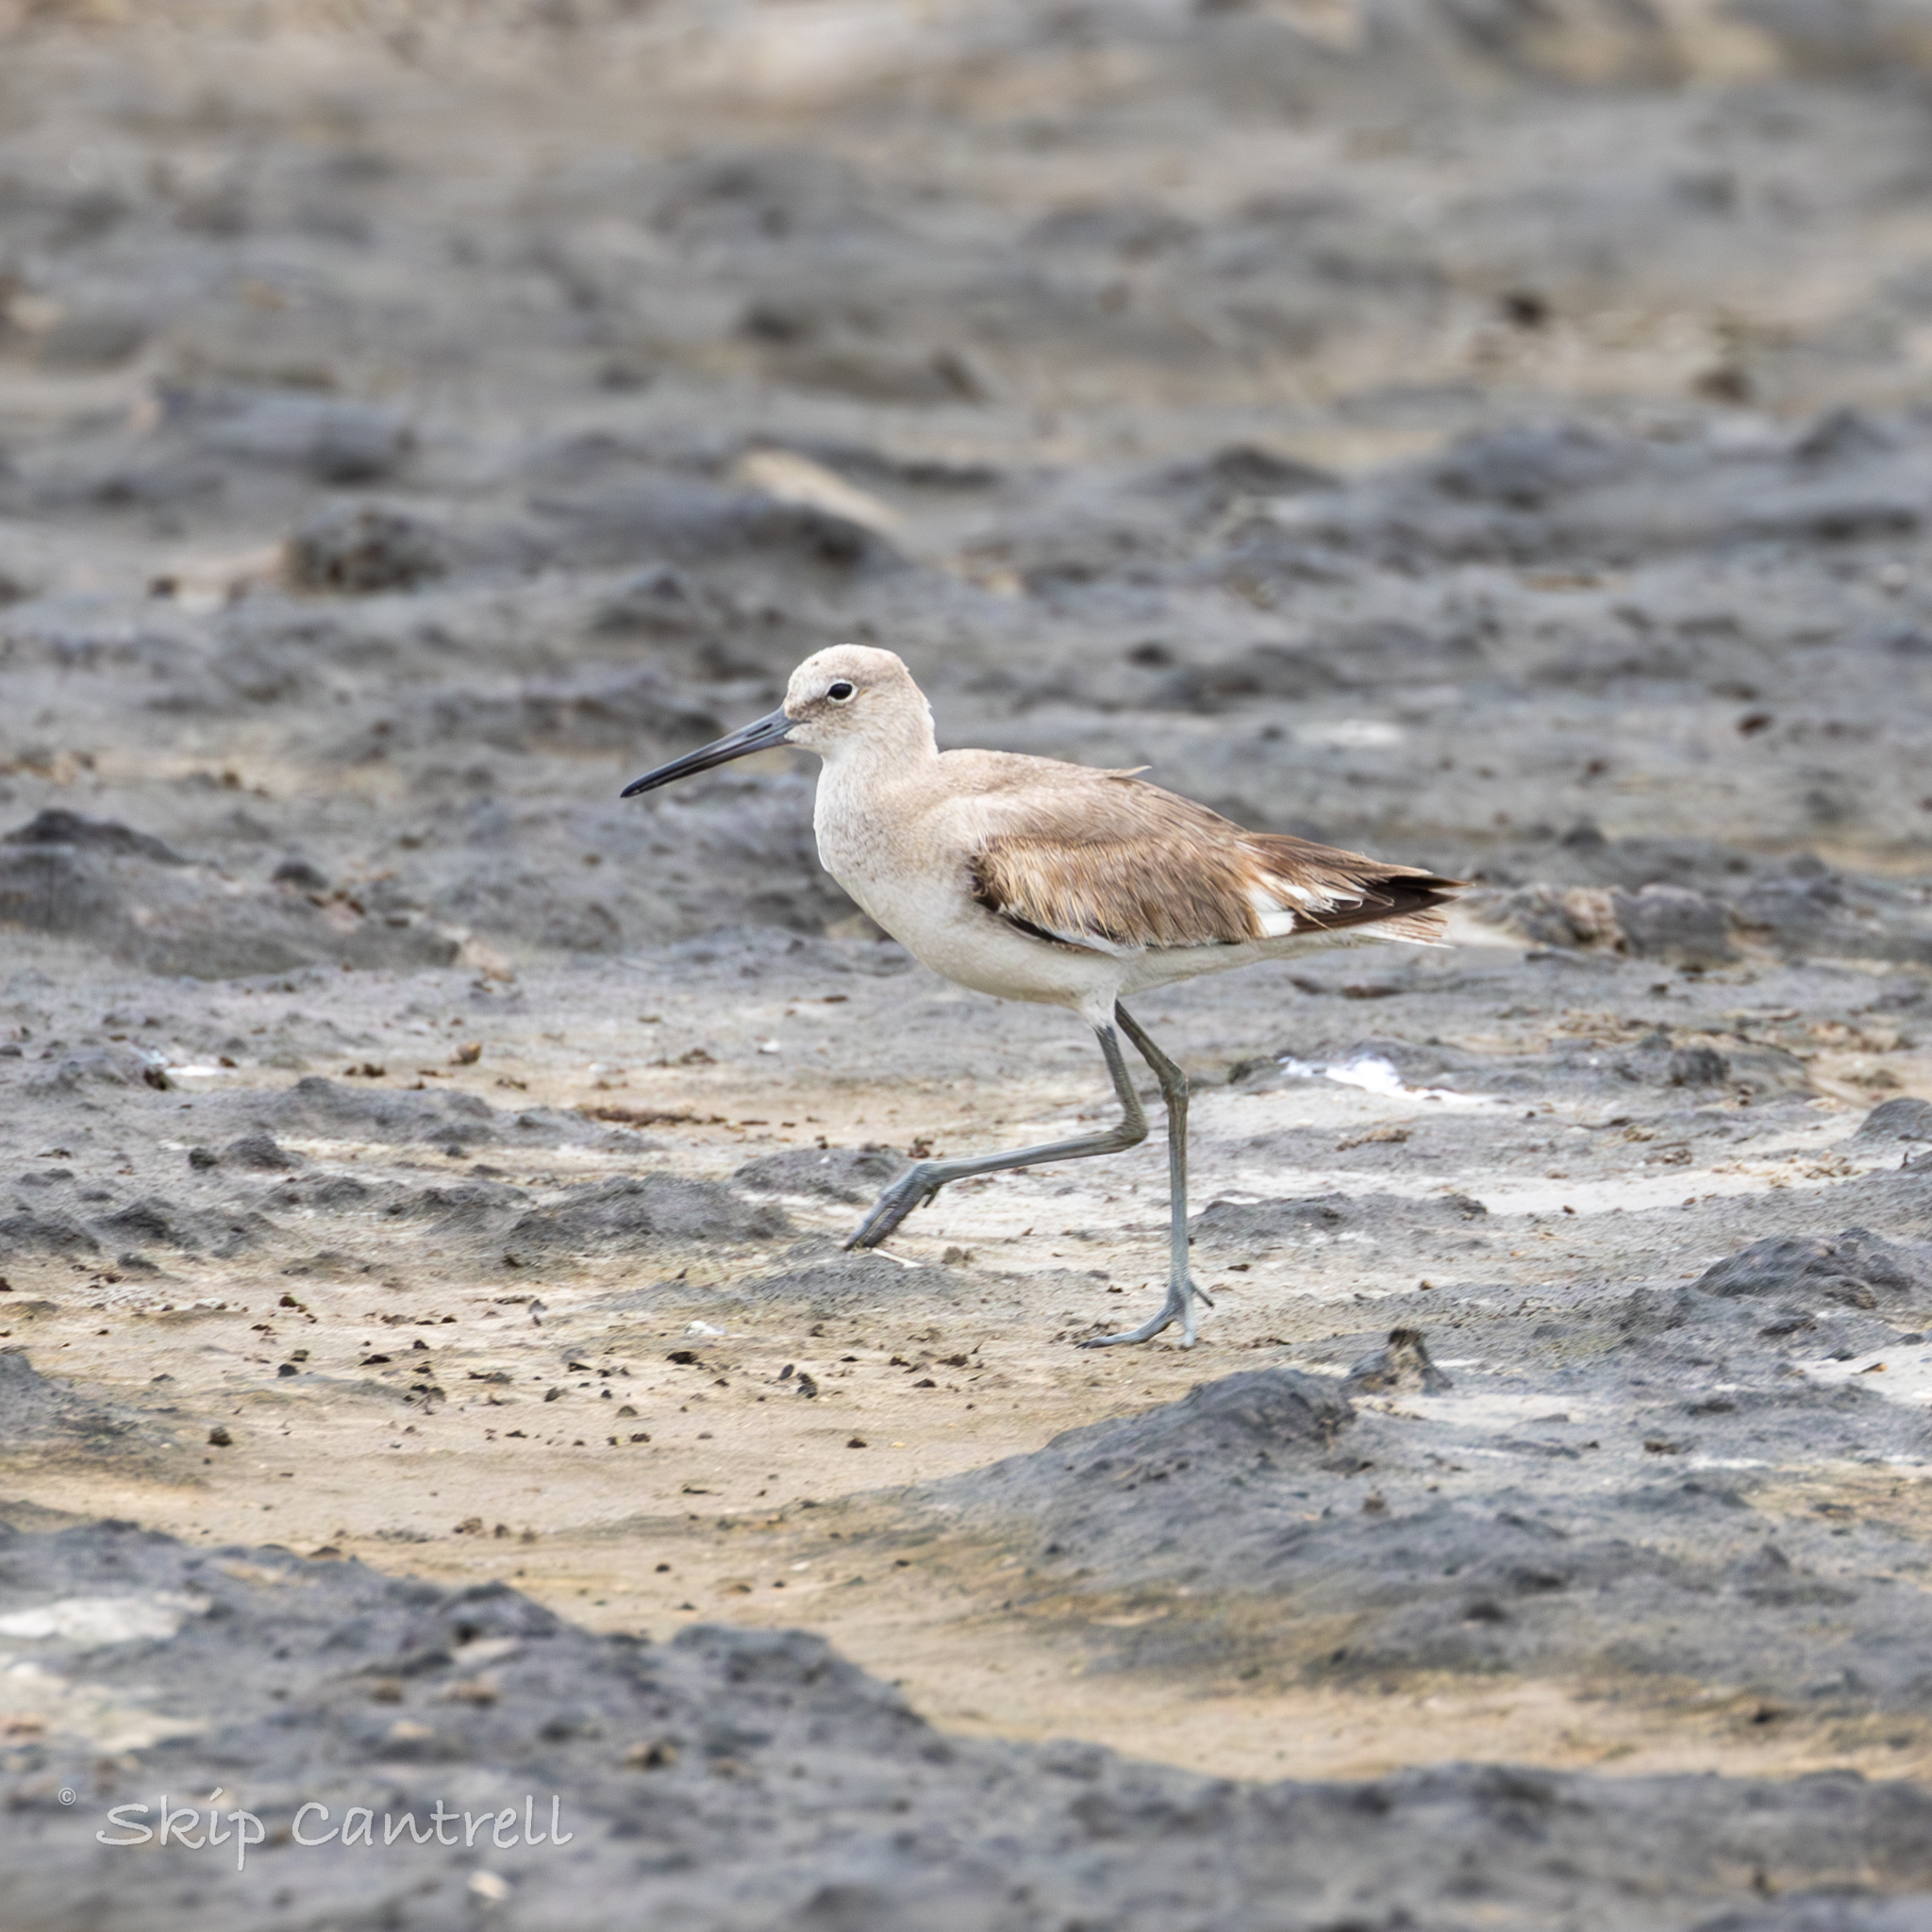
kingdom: Animalia
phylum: Chordata
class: Aves
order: Charadriiformes
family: Scolopacidae
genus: Tringa
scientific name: Tringa semipalmata
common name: Willet
